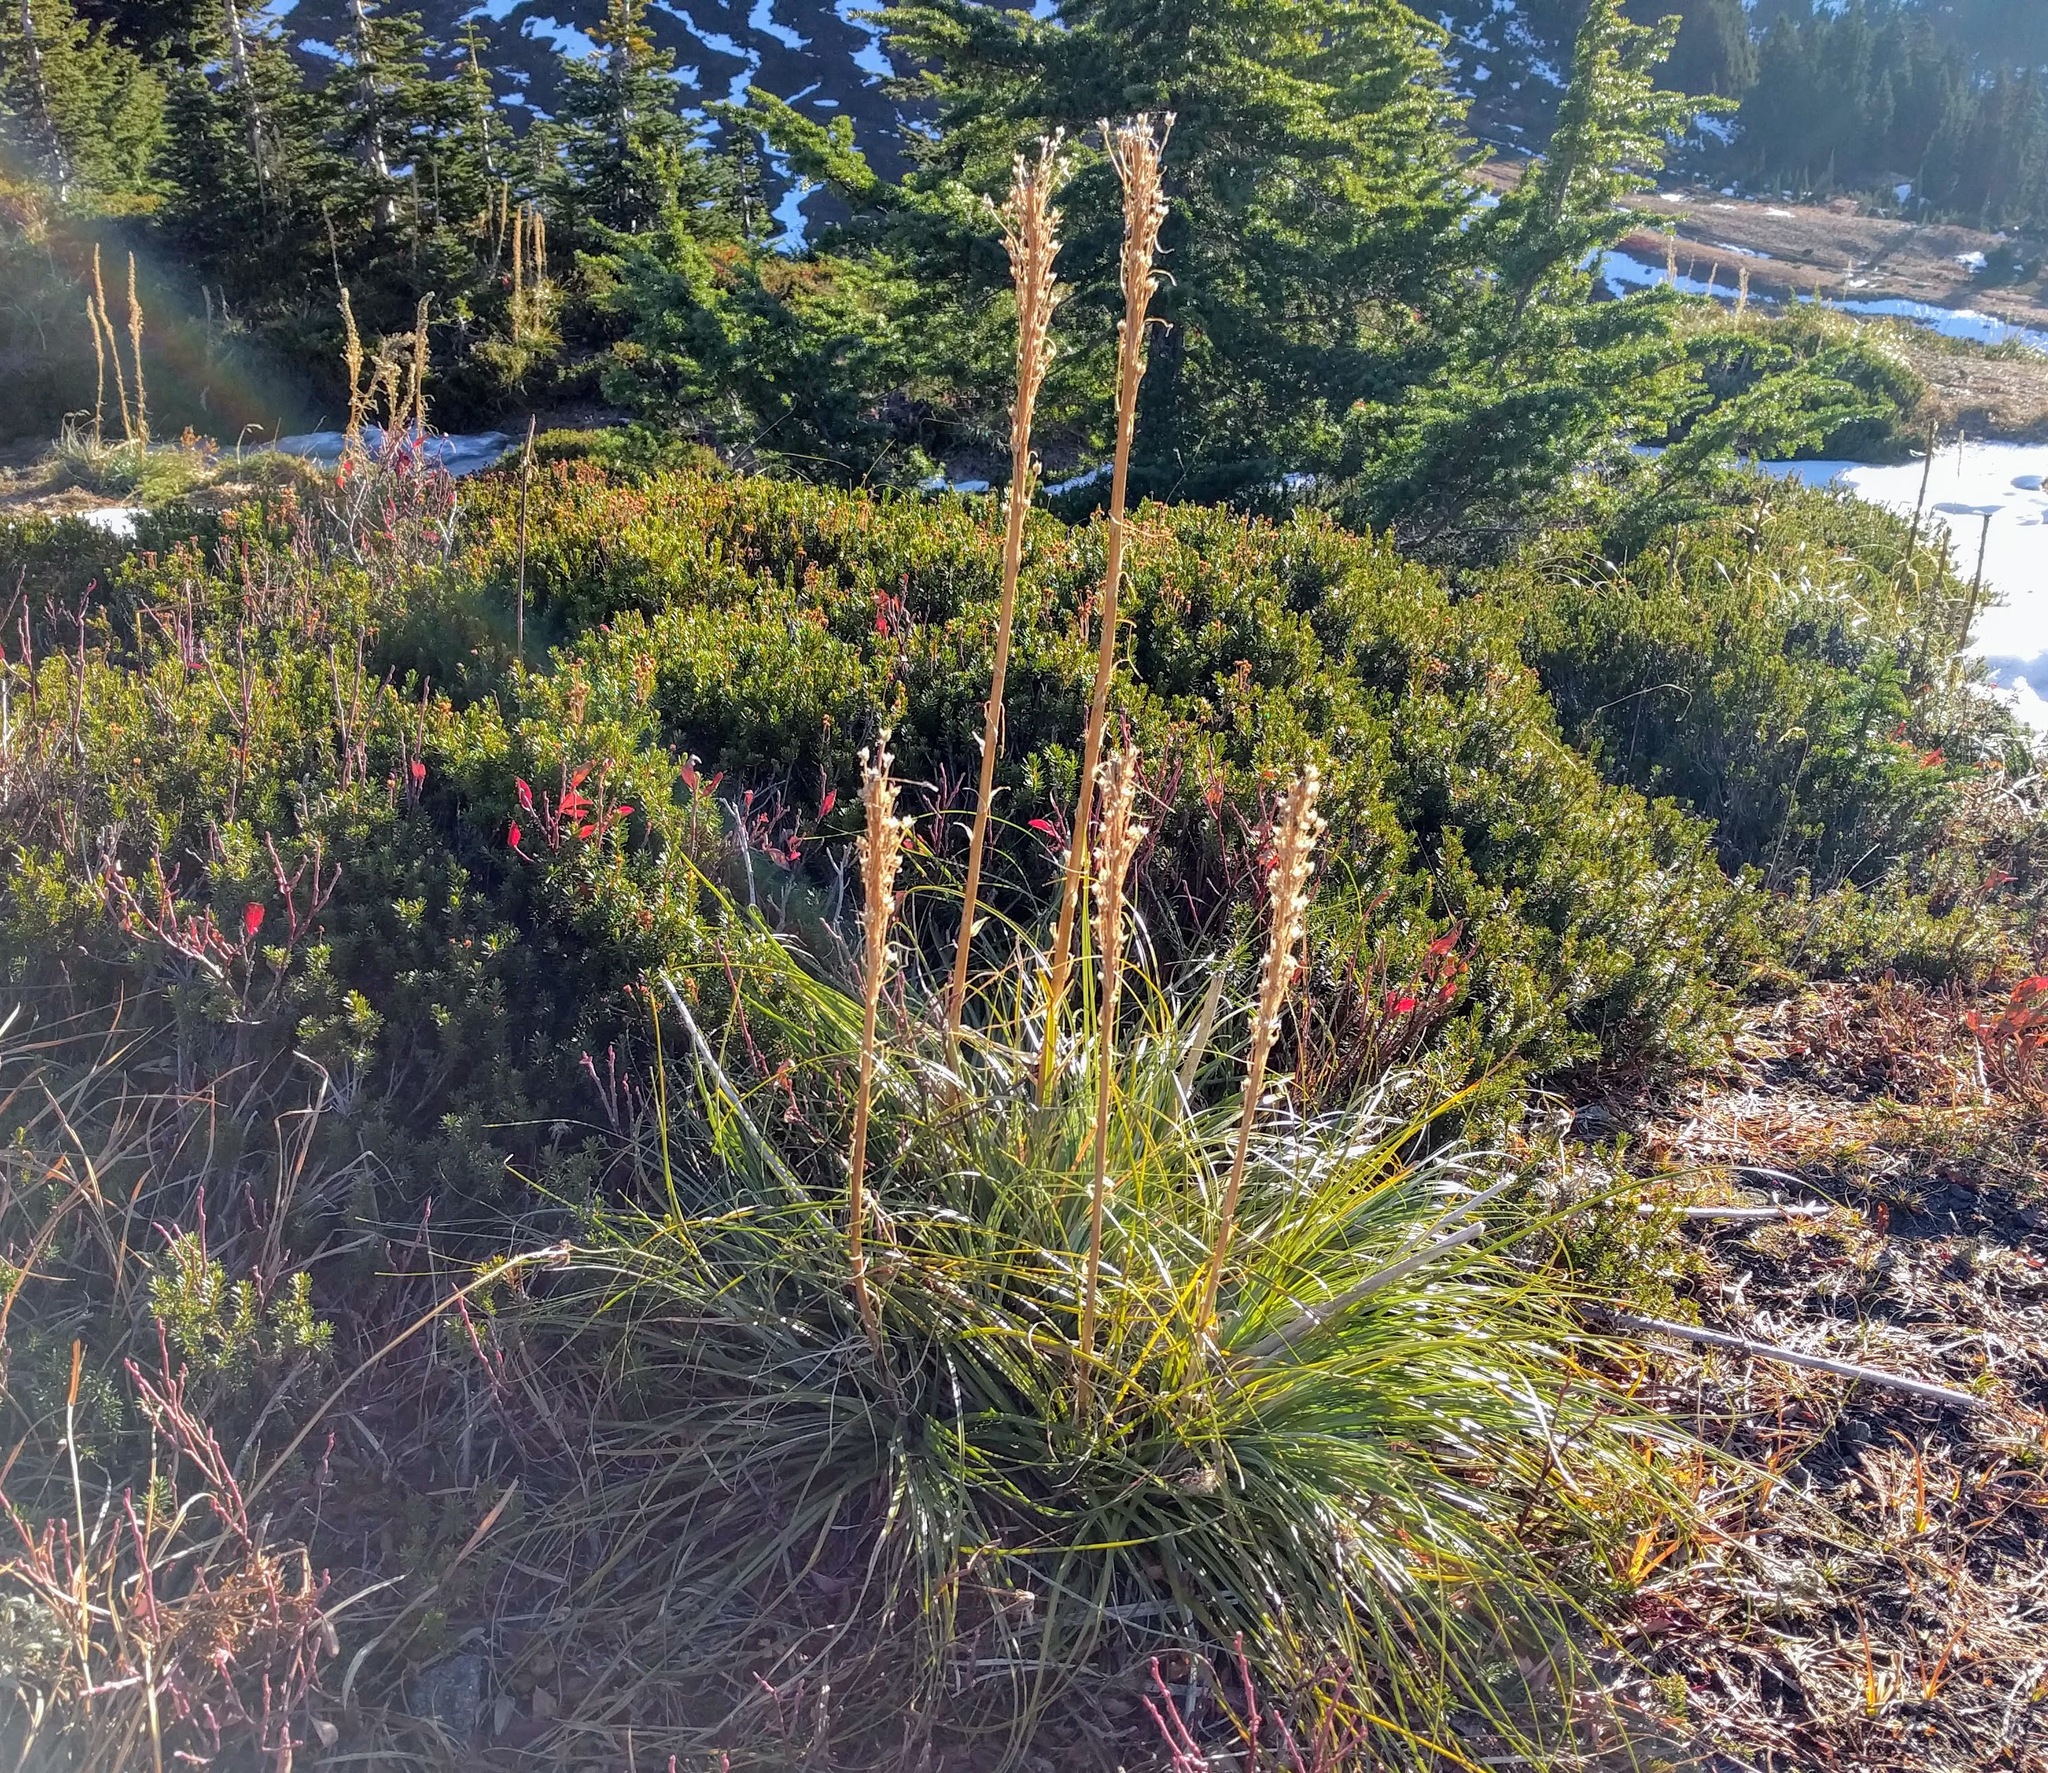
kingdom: Plantae
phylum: Tracheophyta
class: Liliopsida
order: Liliales
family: Melanthiaceae
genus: Xerophyllum
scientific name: Xerophyllum tenax
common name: Bear-grass
